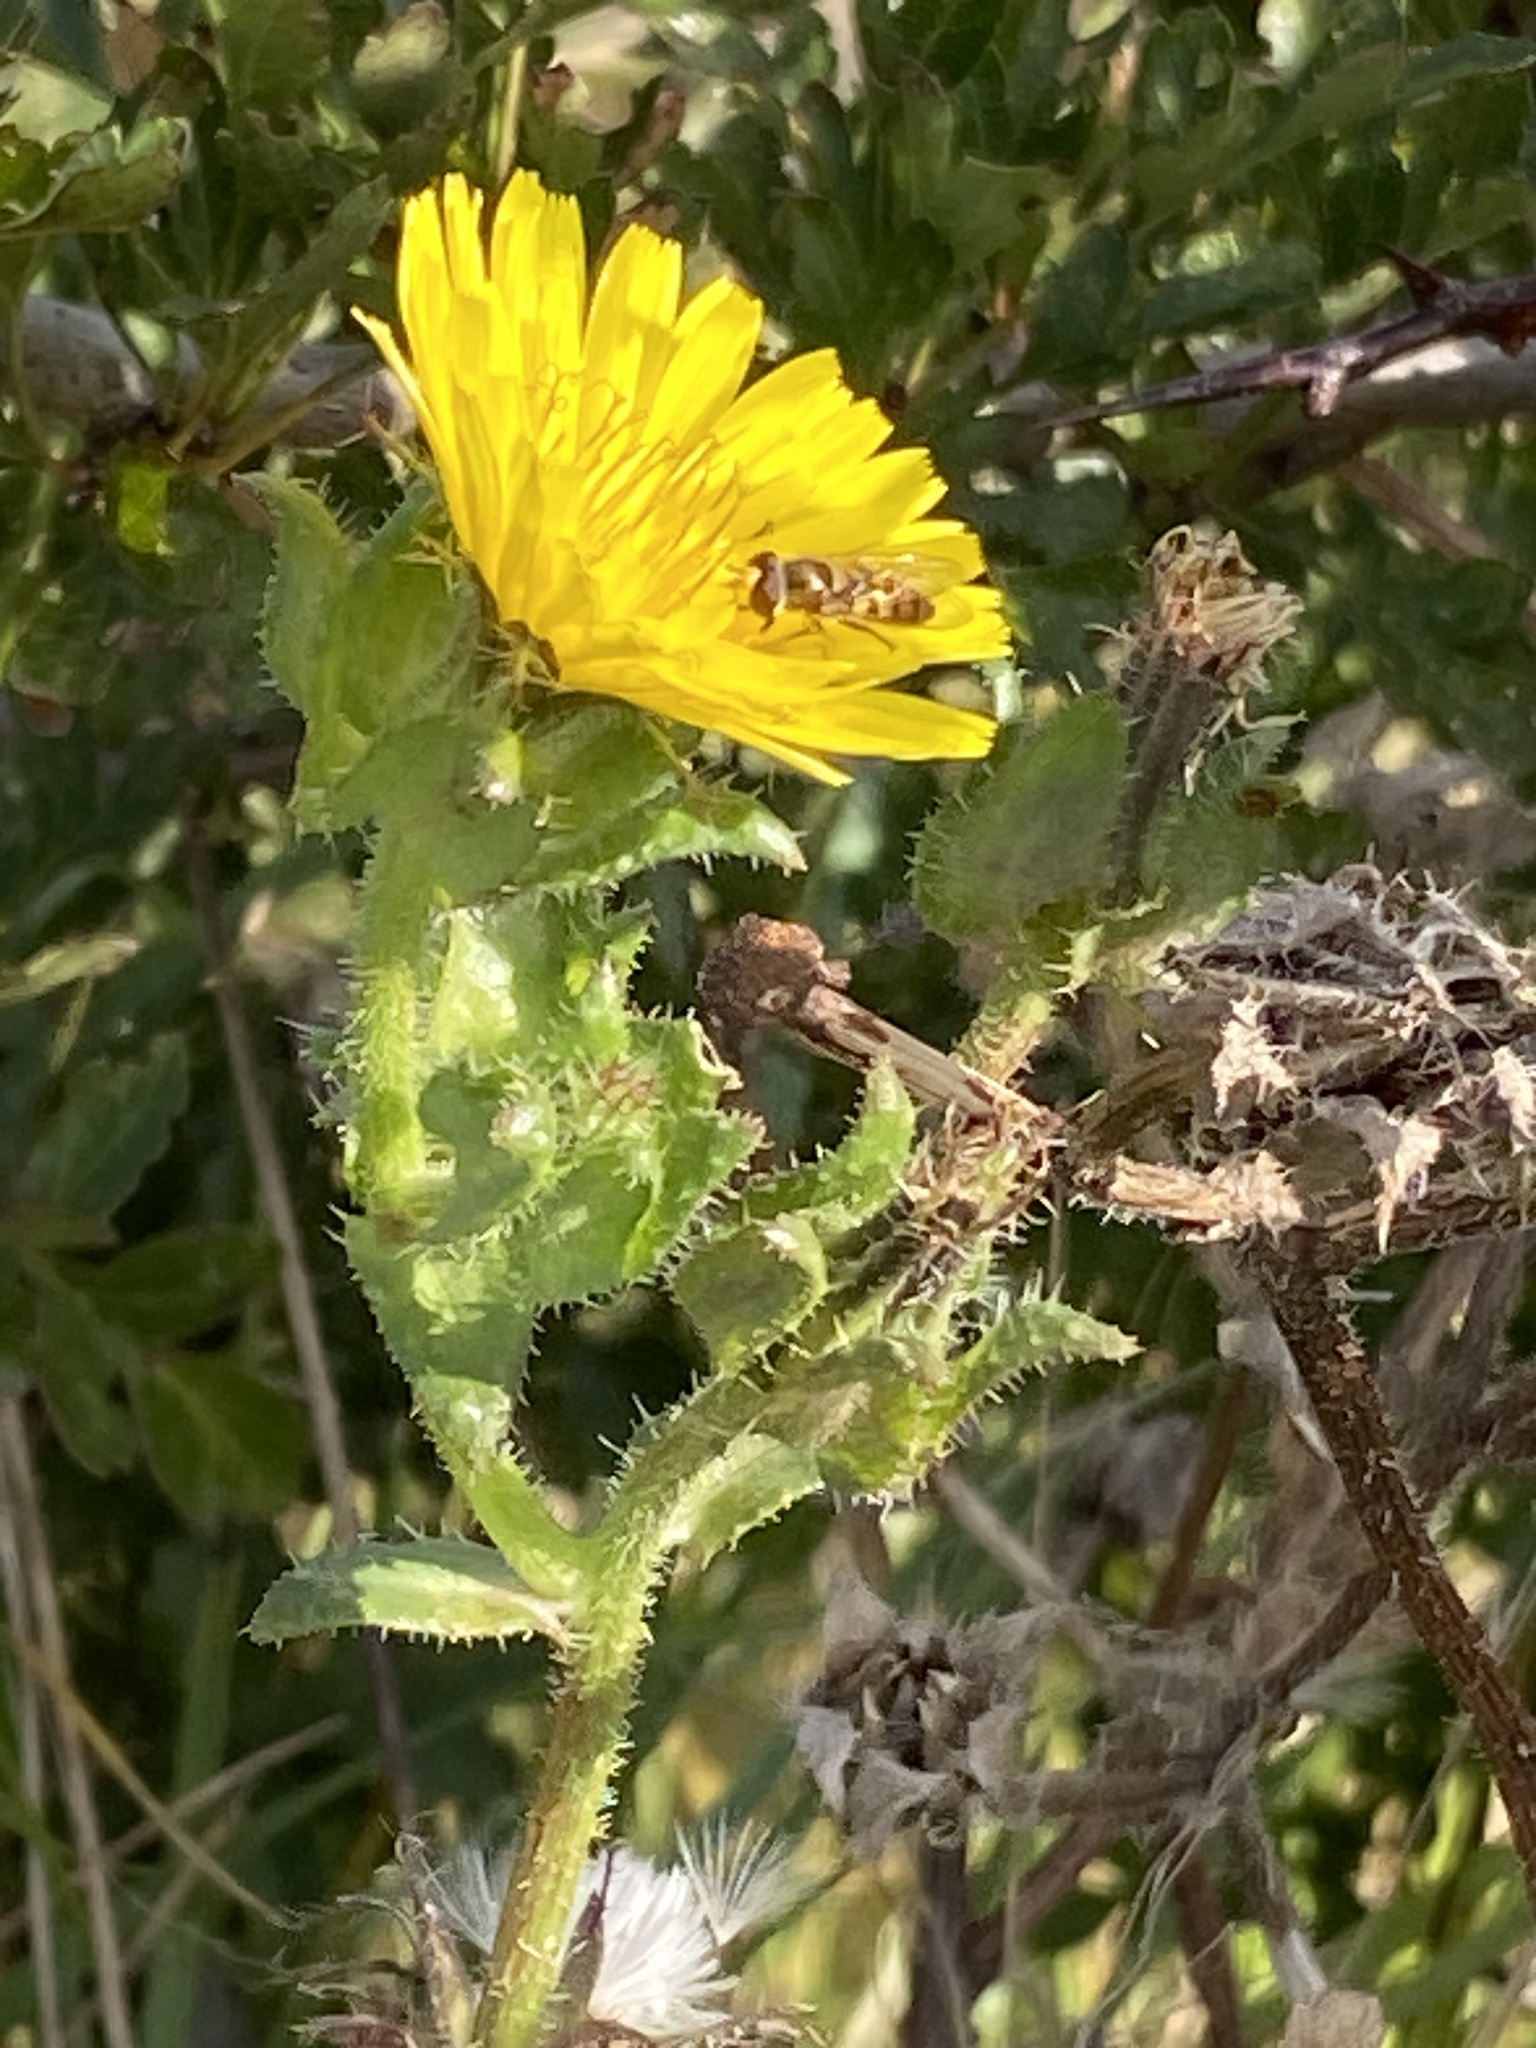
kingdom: Animalia
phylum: Arthropoda
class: Insecta
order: Diptera
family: Syrphidae
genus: Eupeodes
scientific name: Eupeodes
